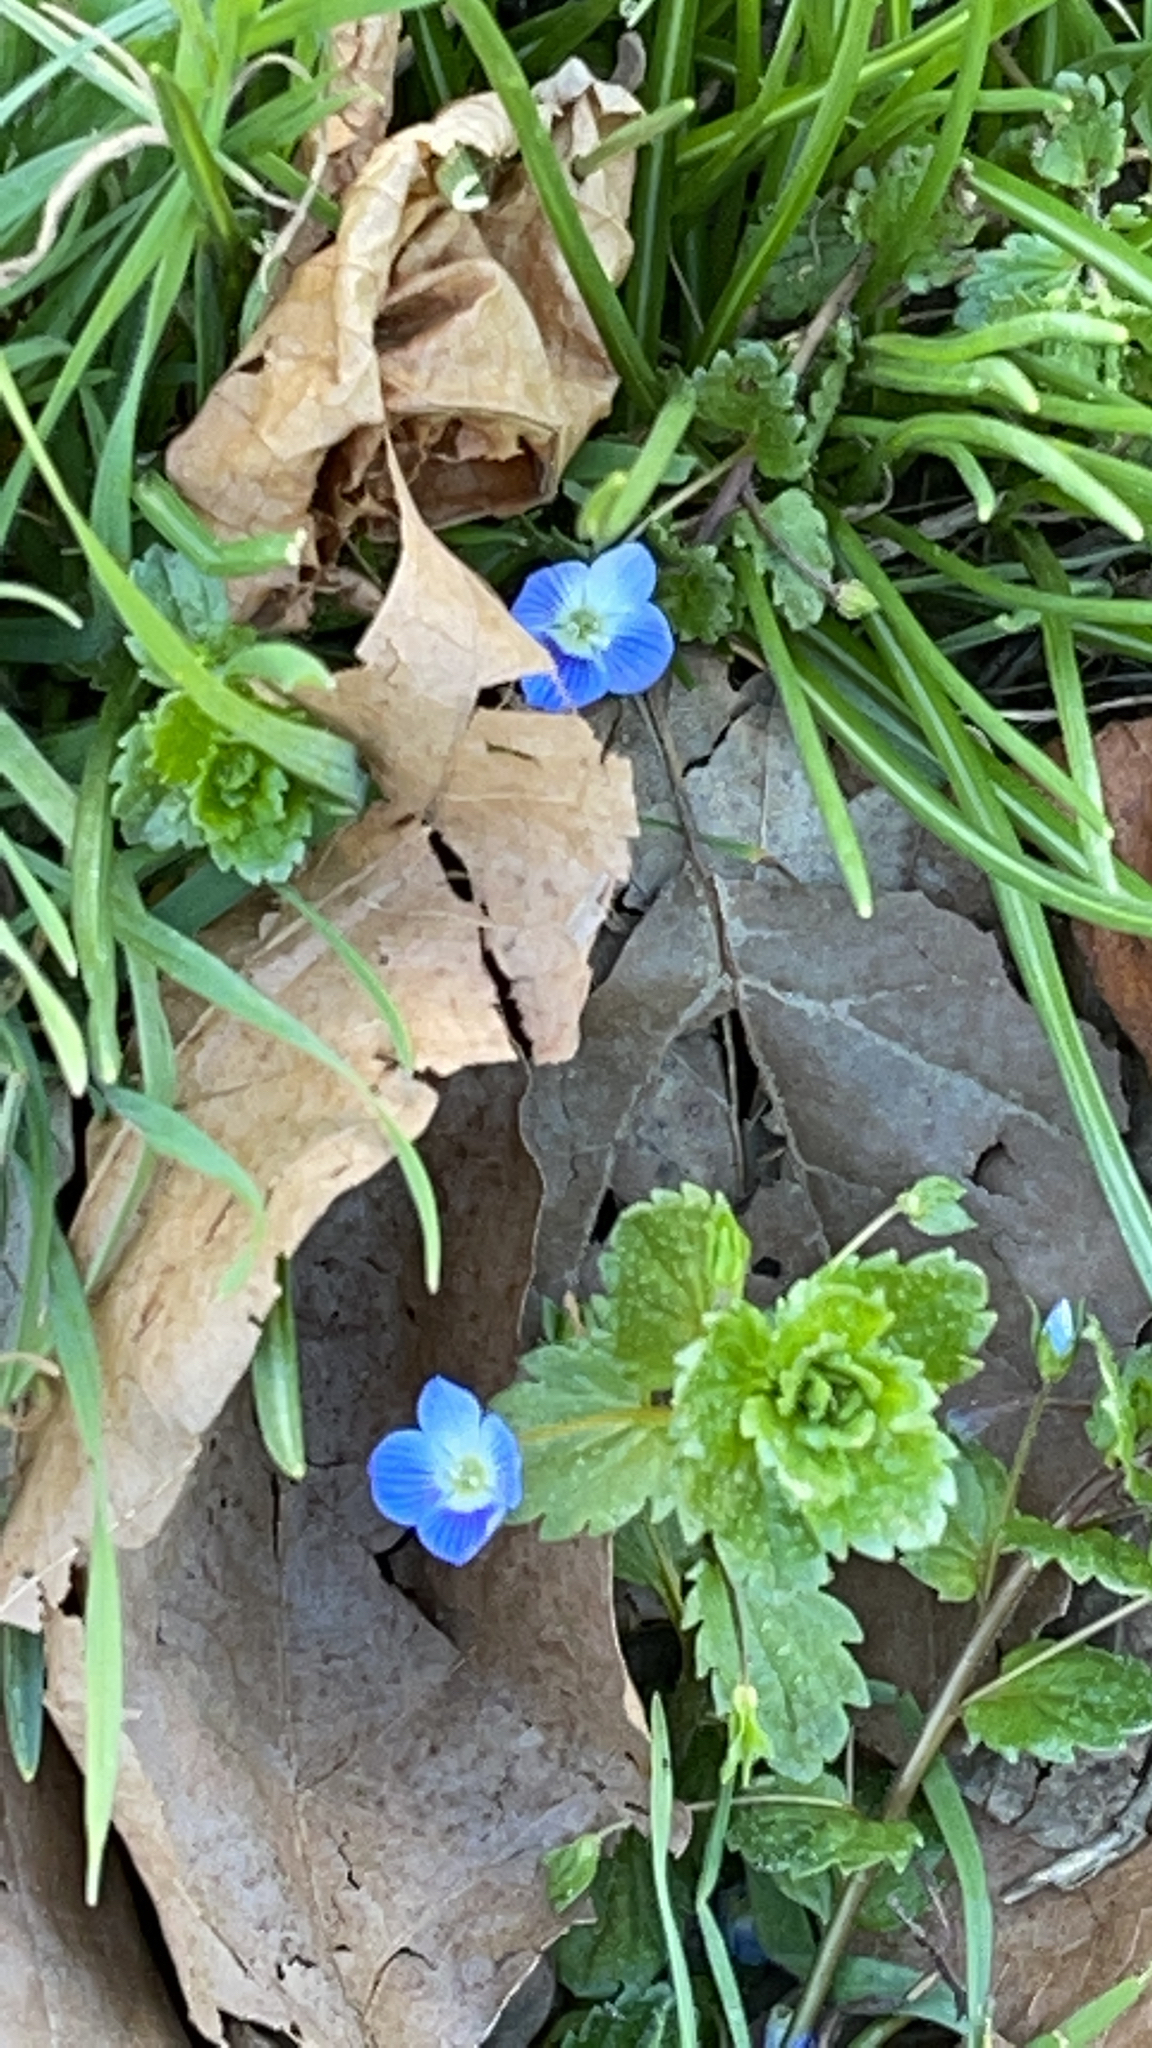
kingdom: Plantae
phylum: Tracheophyta
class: Magnoliopsida
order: Lamiales
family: Plantaginaceae
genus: Veronica
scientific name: Veronica persica
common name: Common field-speedwell
